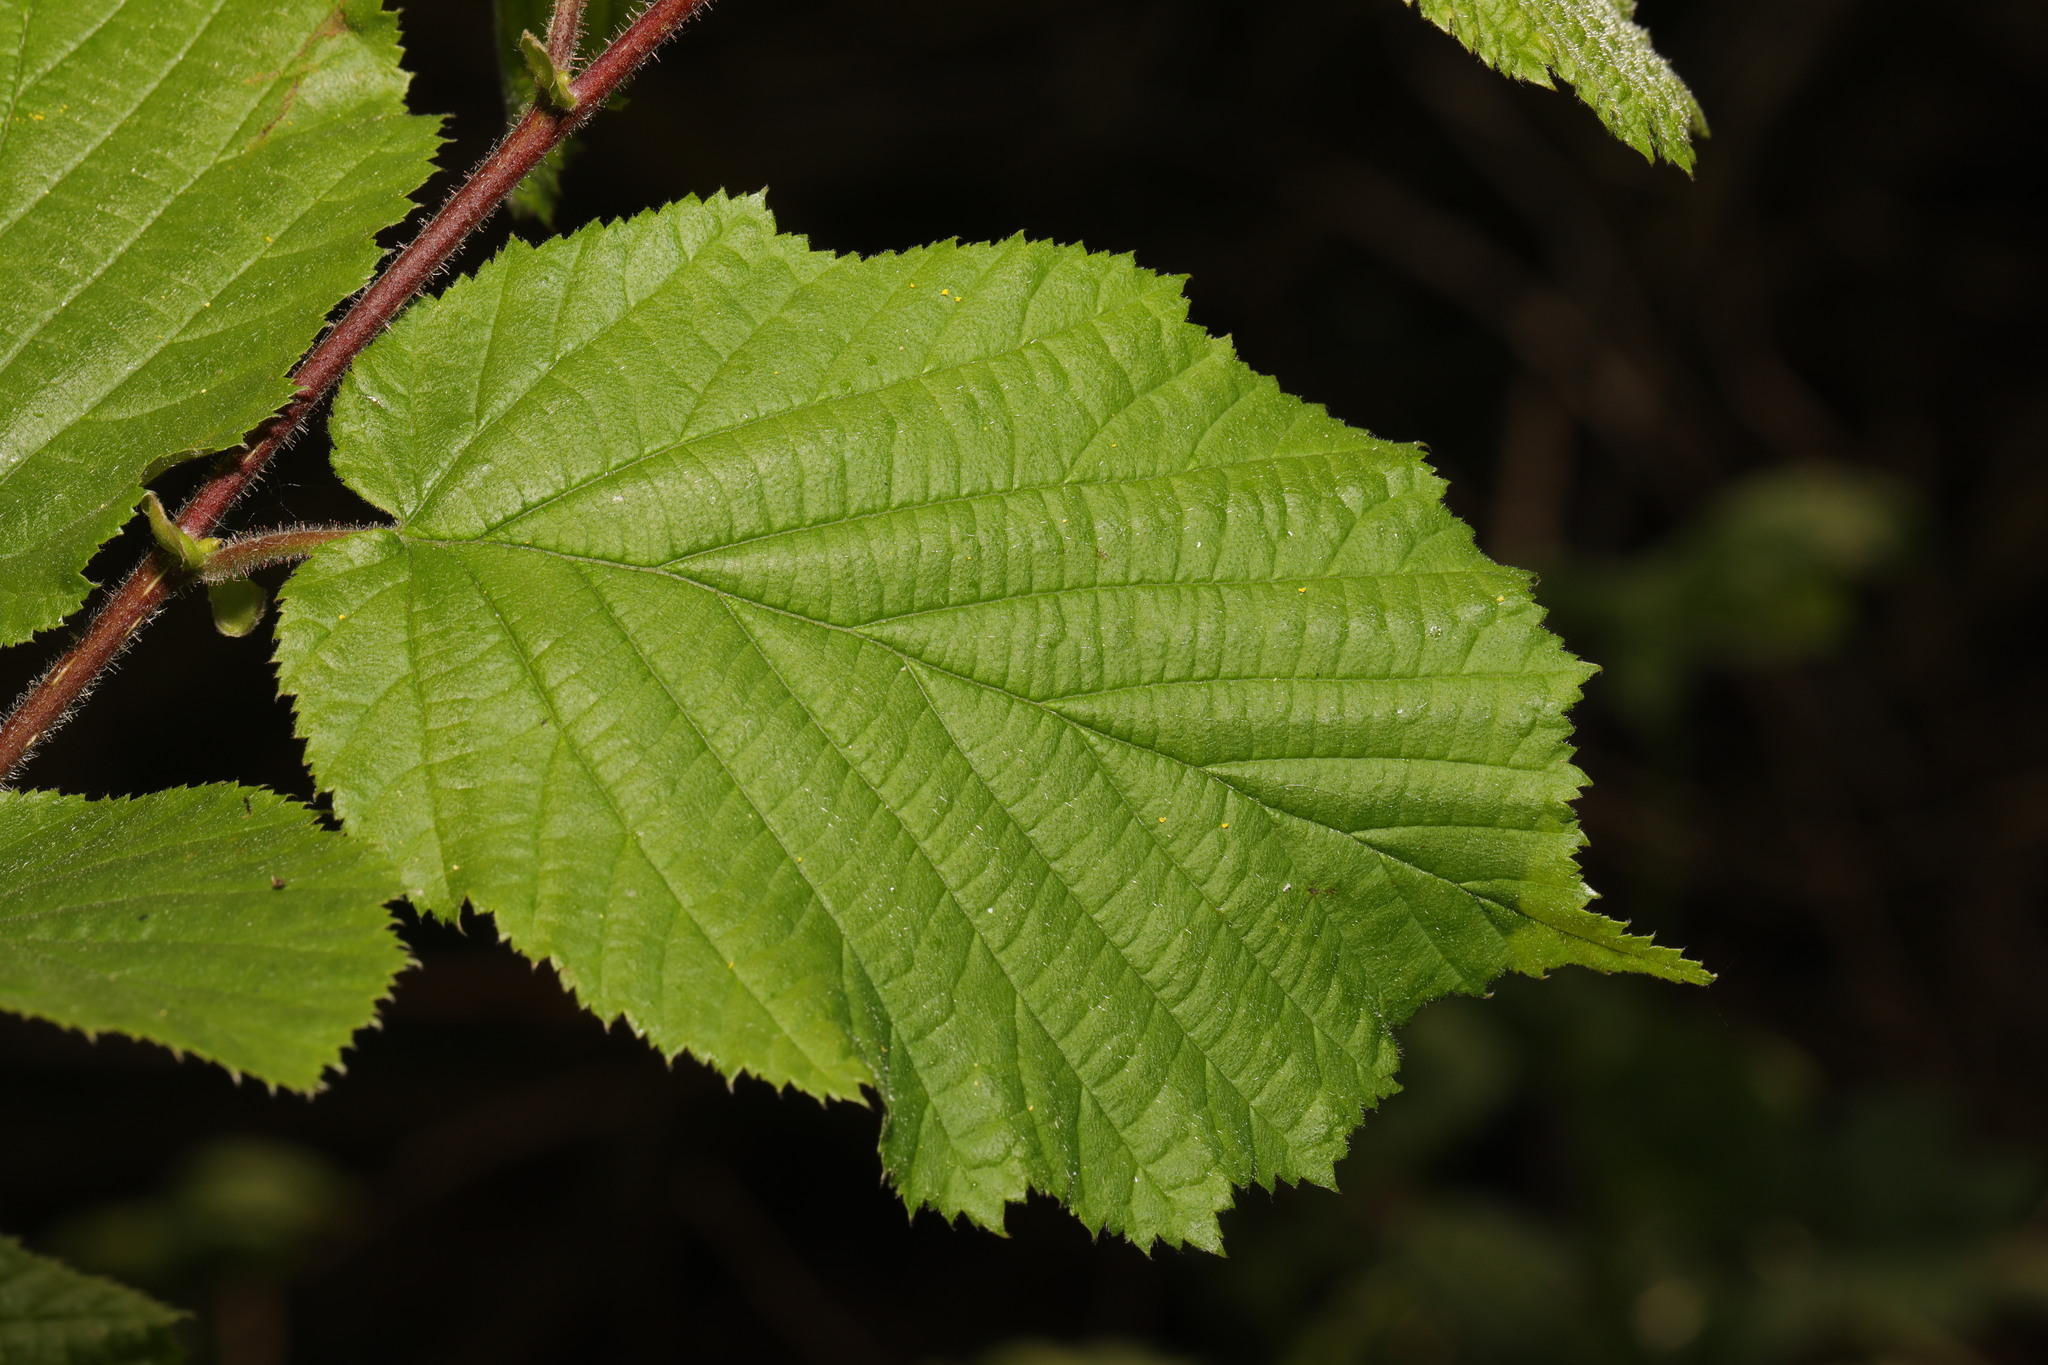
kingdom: Plantae
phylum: Tracheophyta
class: Magnoliopsida
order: Fagales
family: Betulaceae
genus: Corylus
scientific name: Corylus avellana
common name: European hazel
